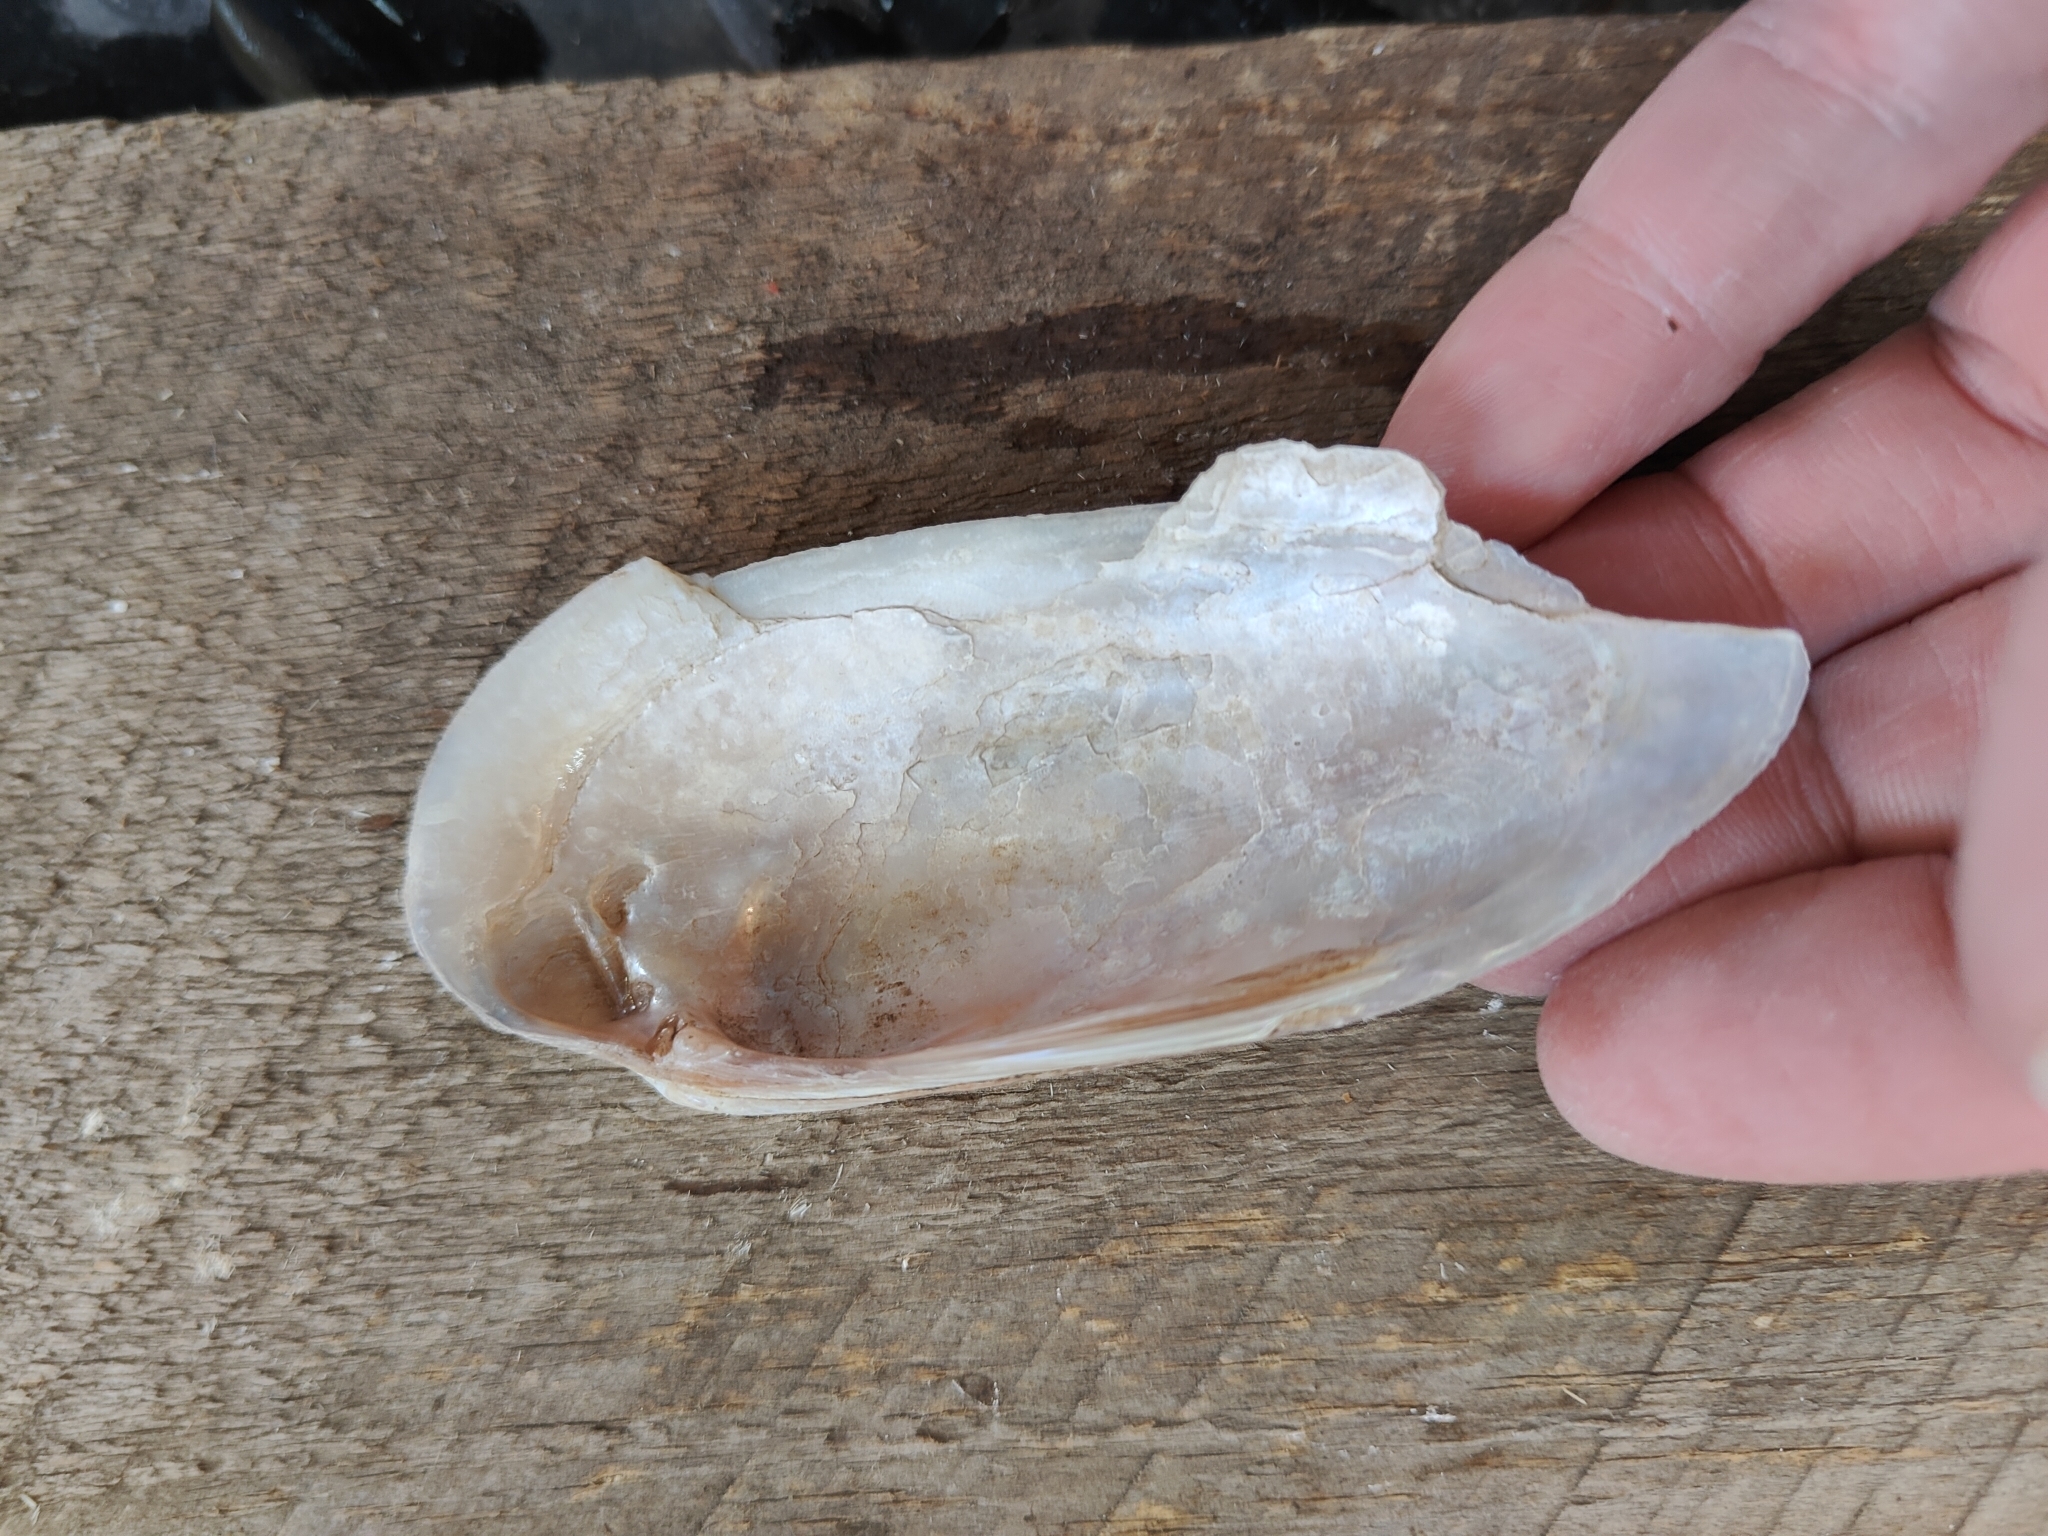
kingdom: Animalia
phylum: Mollusca
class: Bivalvia
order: Unionida
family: Unionidae
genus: Ligumia
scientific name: Ligumia recta
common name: Black sandshell
